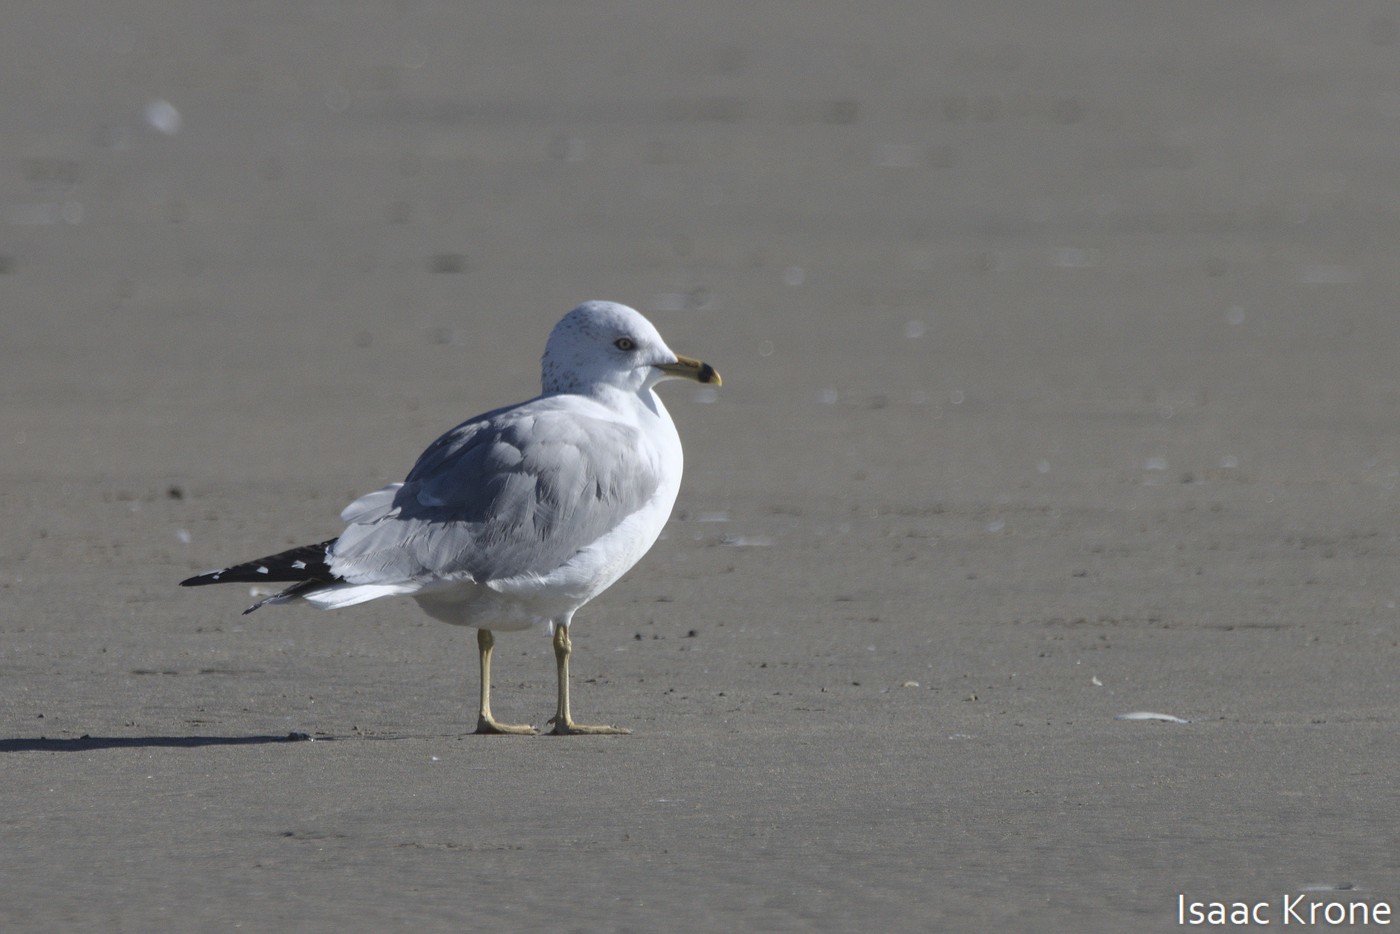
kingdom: Animalia
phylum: Chordata
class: Aves
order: Charadriiformes
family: Laridae
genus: Larus
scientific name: Larus delawarensis
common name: Ring-billed gull
